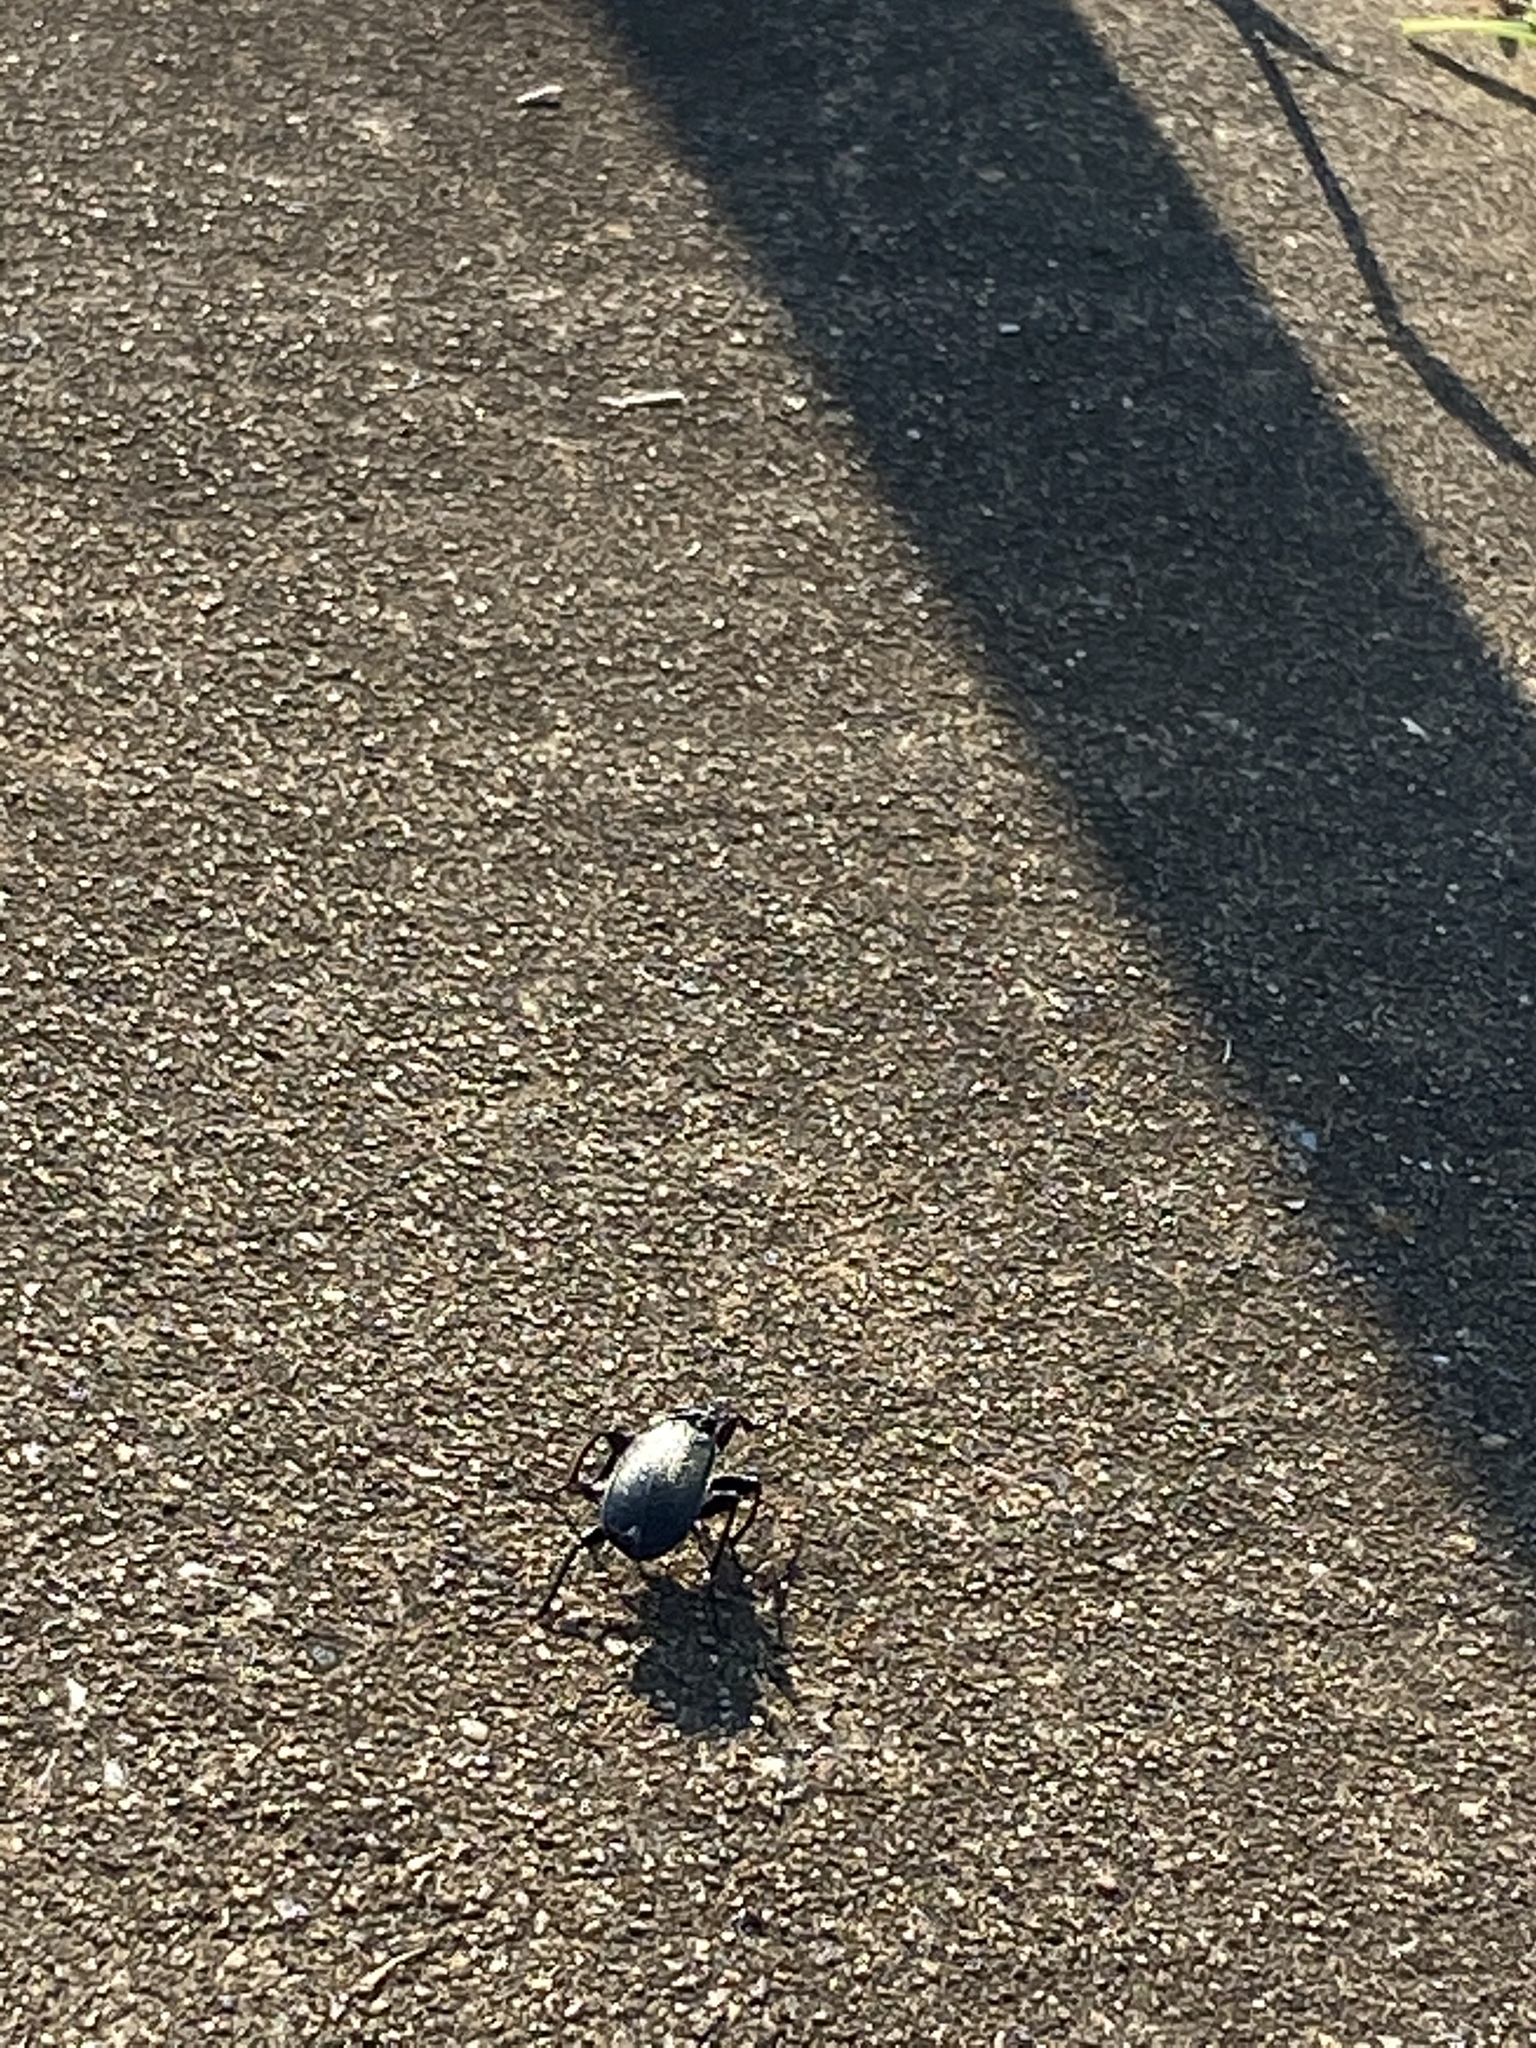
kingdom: Animalia
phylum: Arthropoda
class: Insecta
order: Coleoptera
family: Carabidae
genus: Calosoma
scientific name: Calosoma sayi
